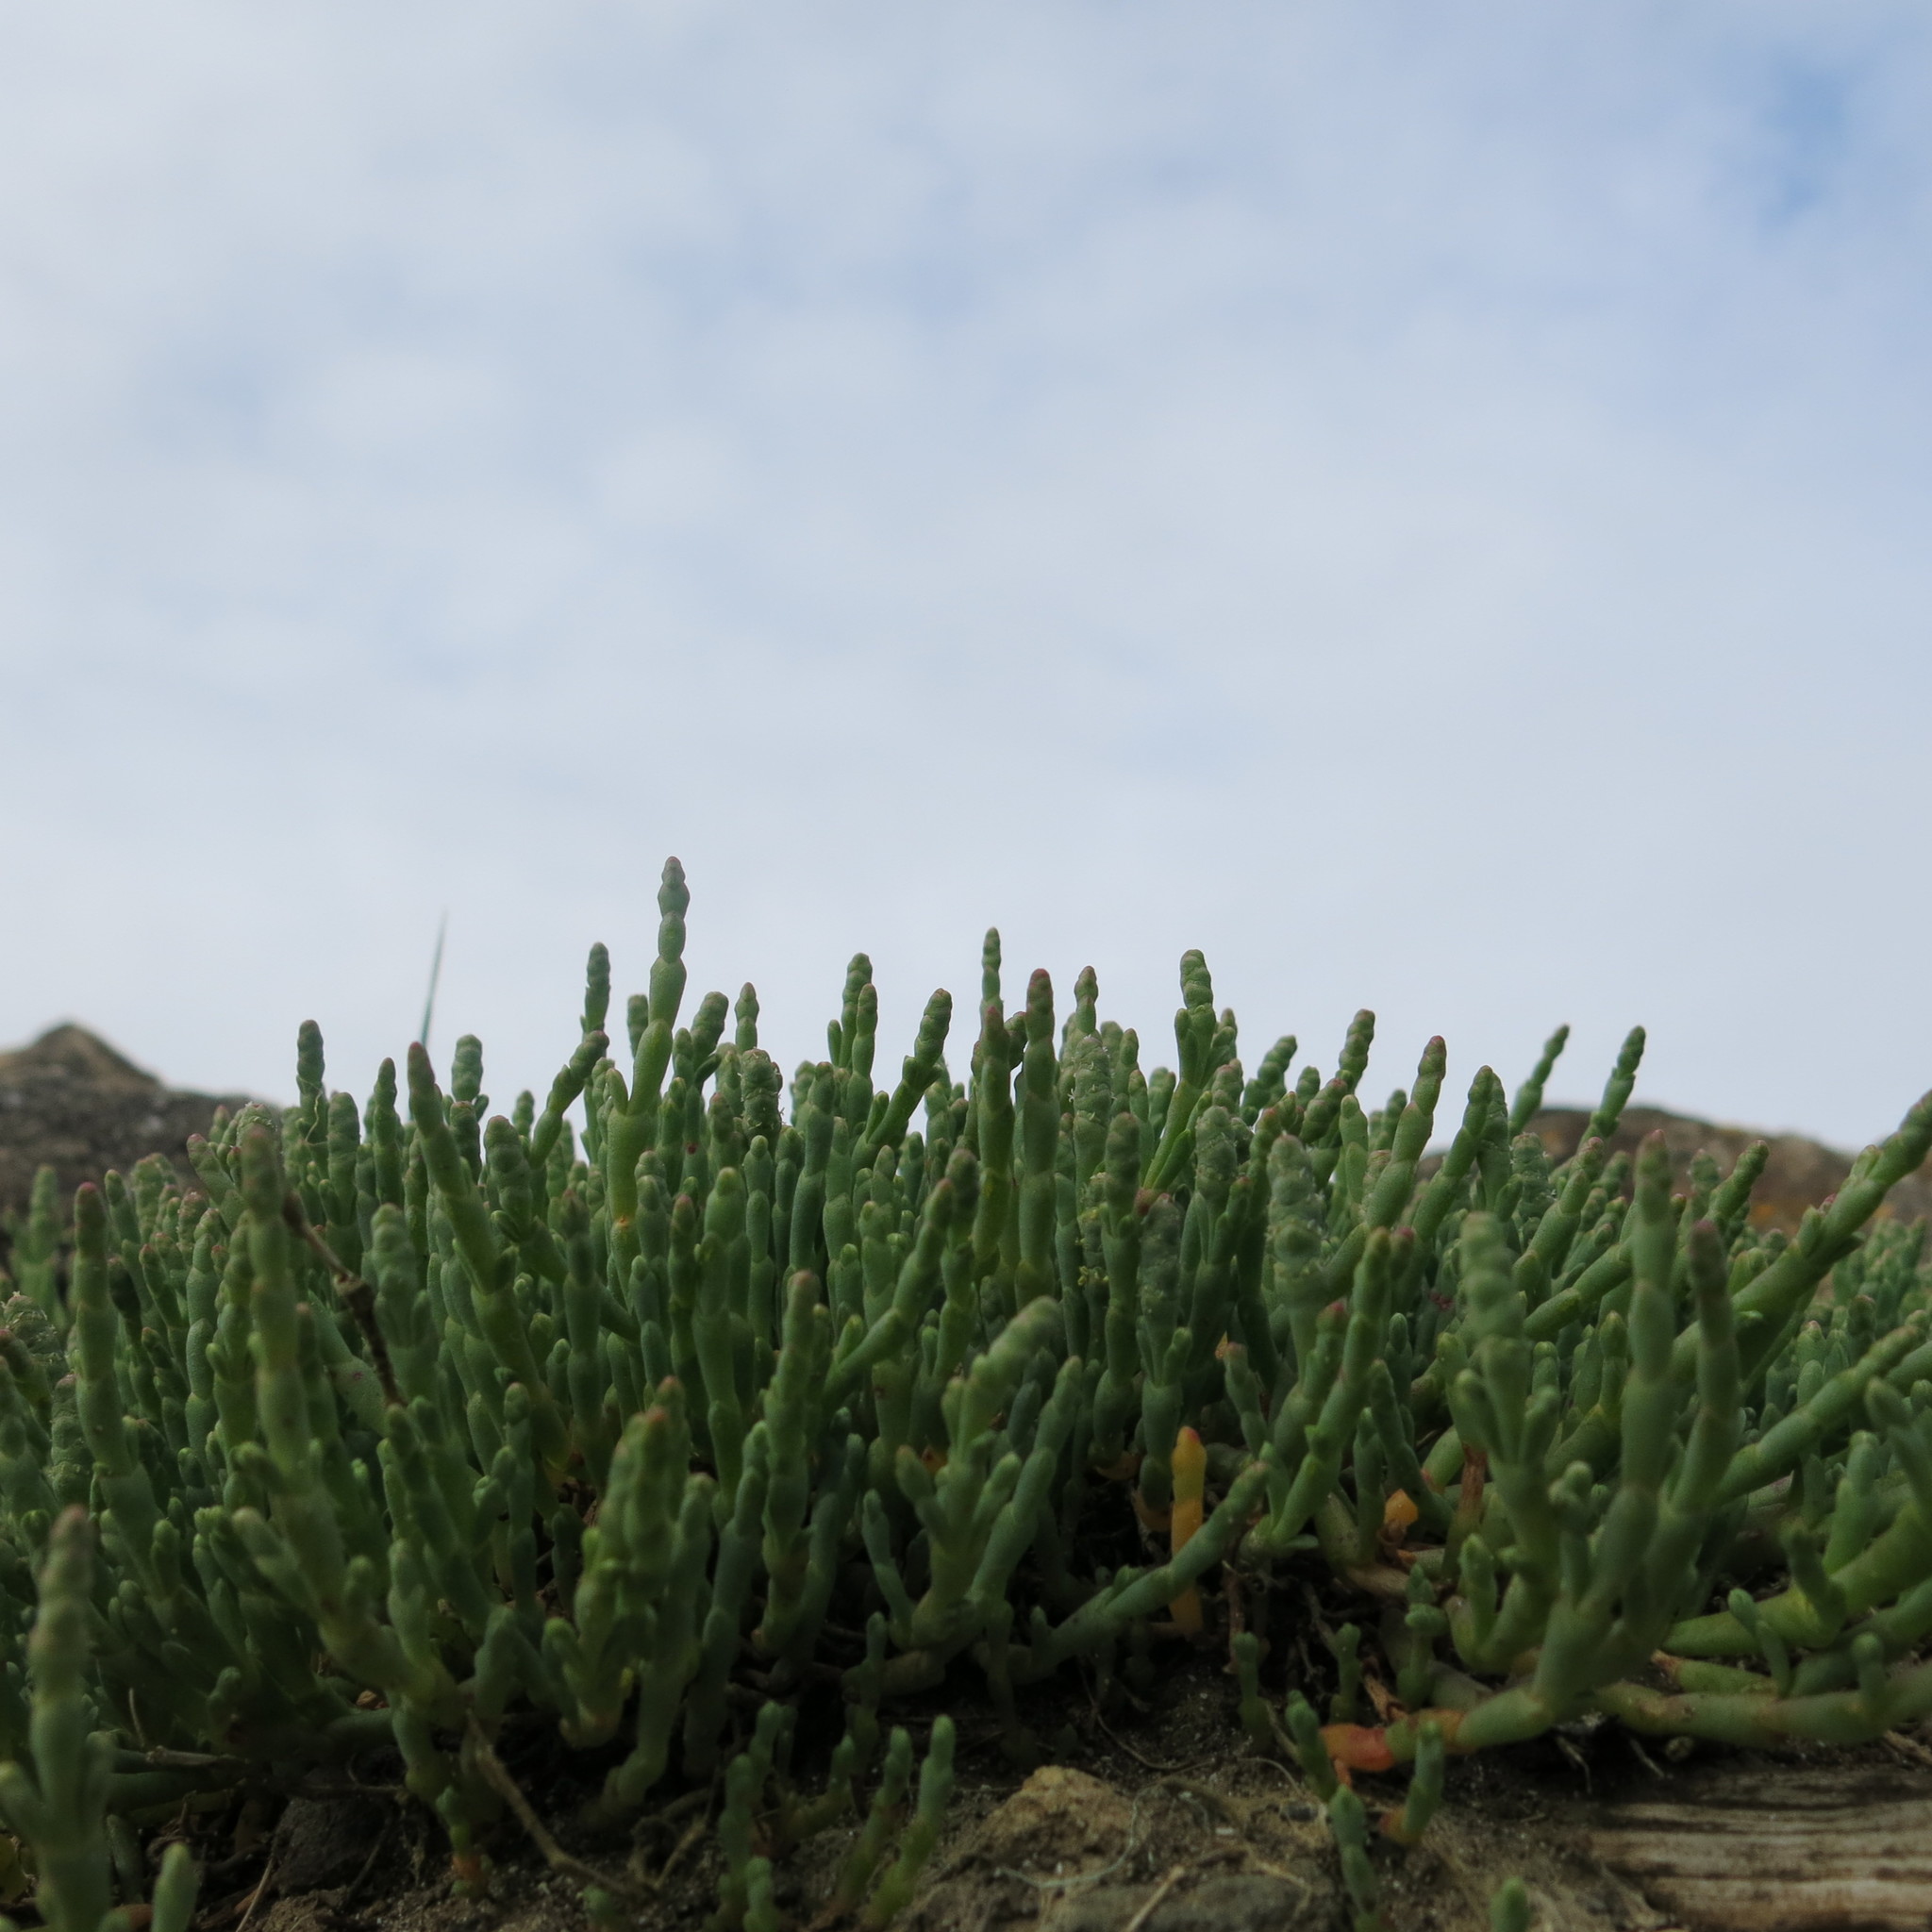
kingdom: Plantae
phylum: Tracheophyta
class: Magnoliopsida
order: Caryophyllales
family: Amaranthaceae
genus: Salicornia
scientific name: Salicornia quinqueflora
